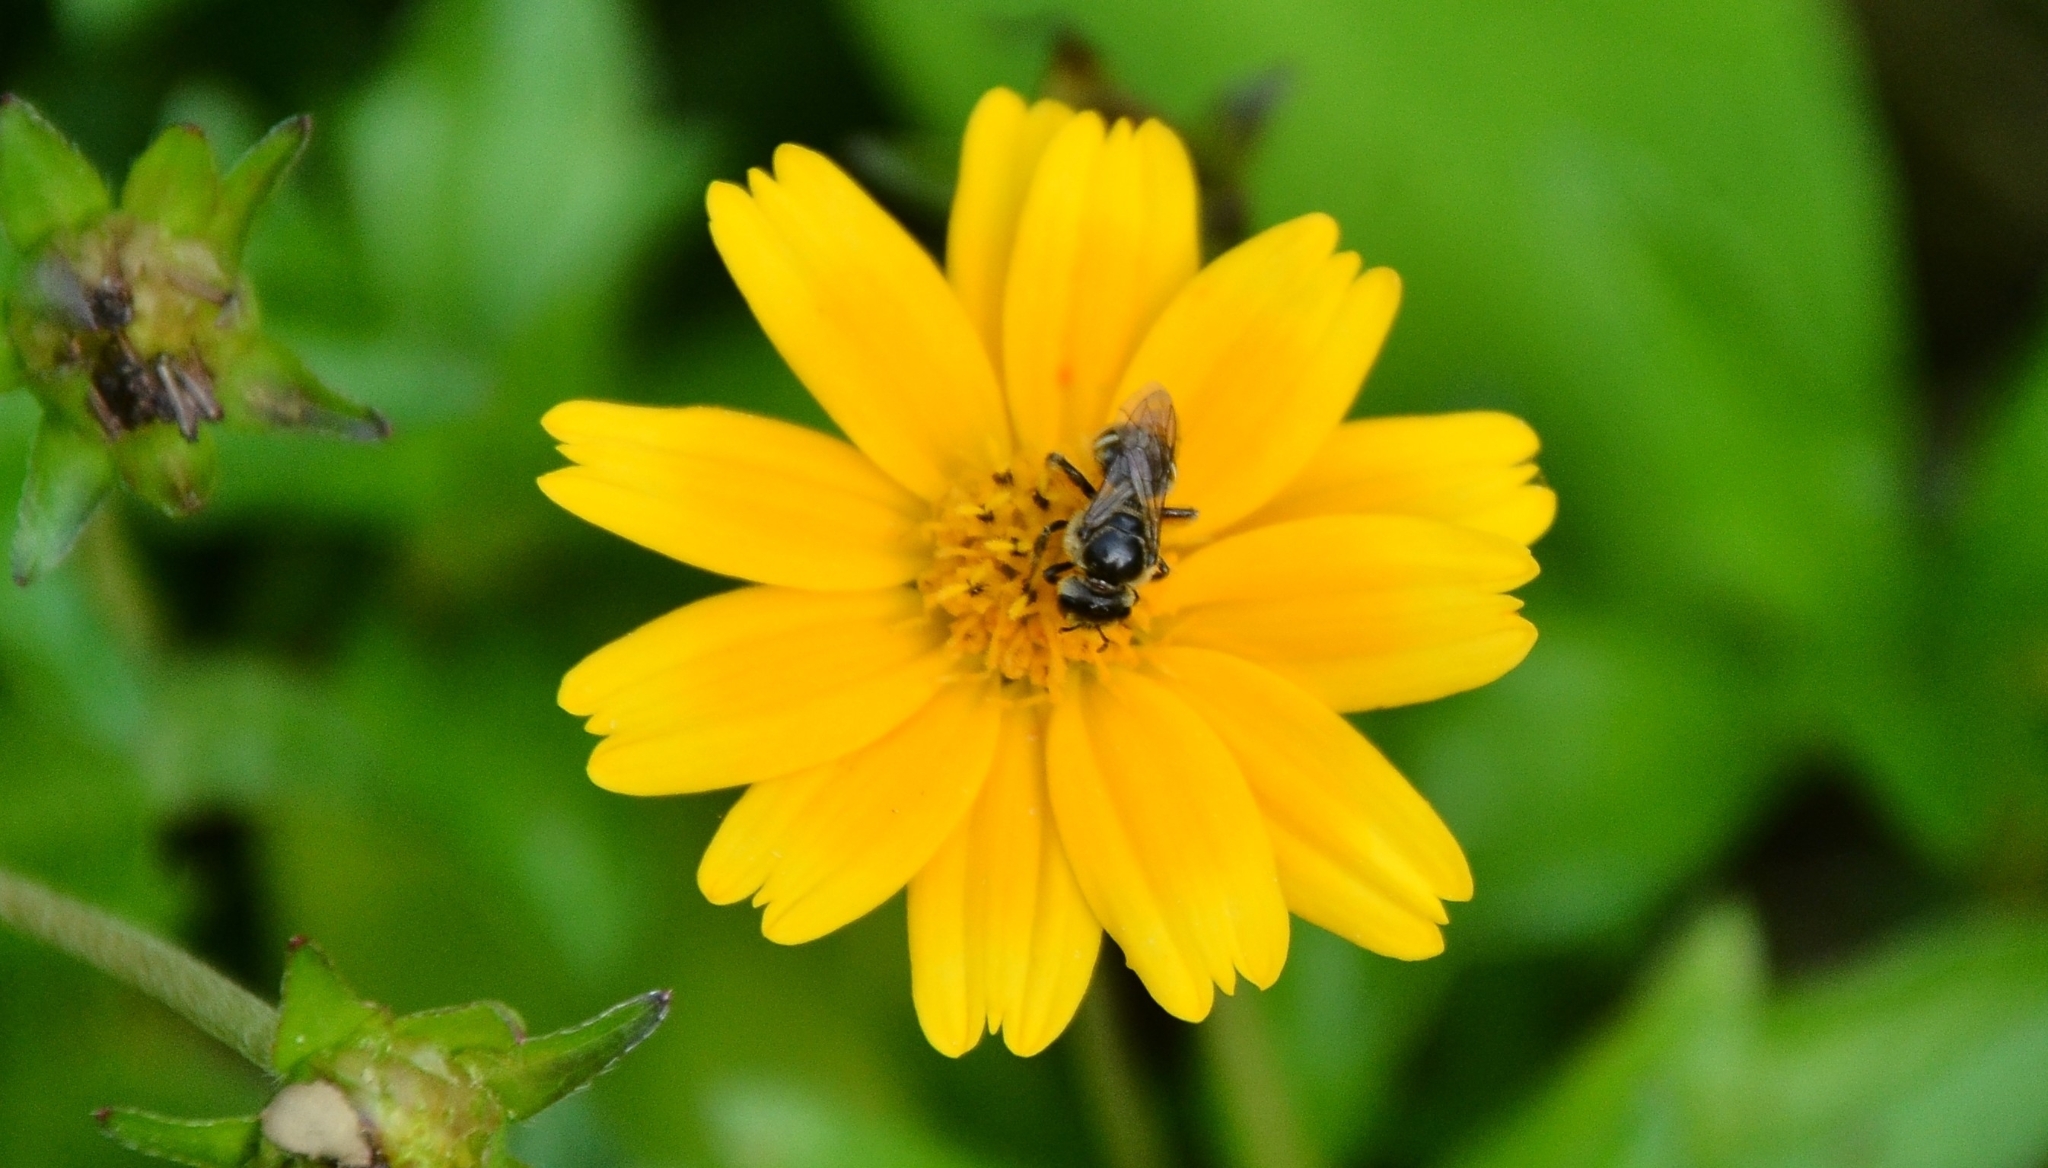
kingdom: Animalia
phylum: Arthropoda
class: Insecta
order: Hymenoptera
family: Halictidae
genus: Lasioglossum
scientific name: Lasioglossum albescens
